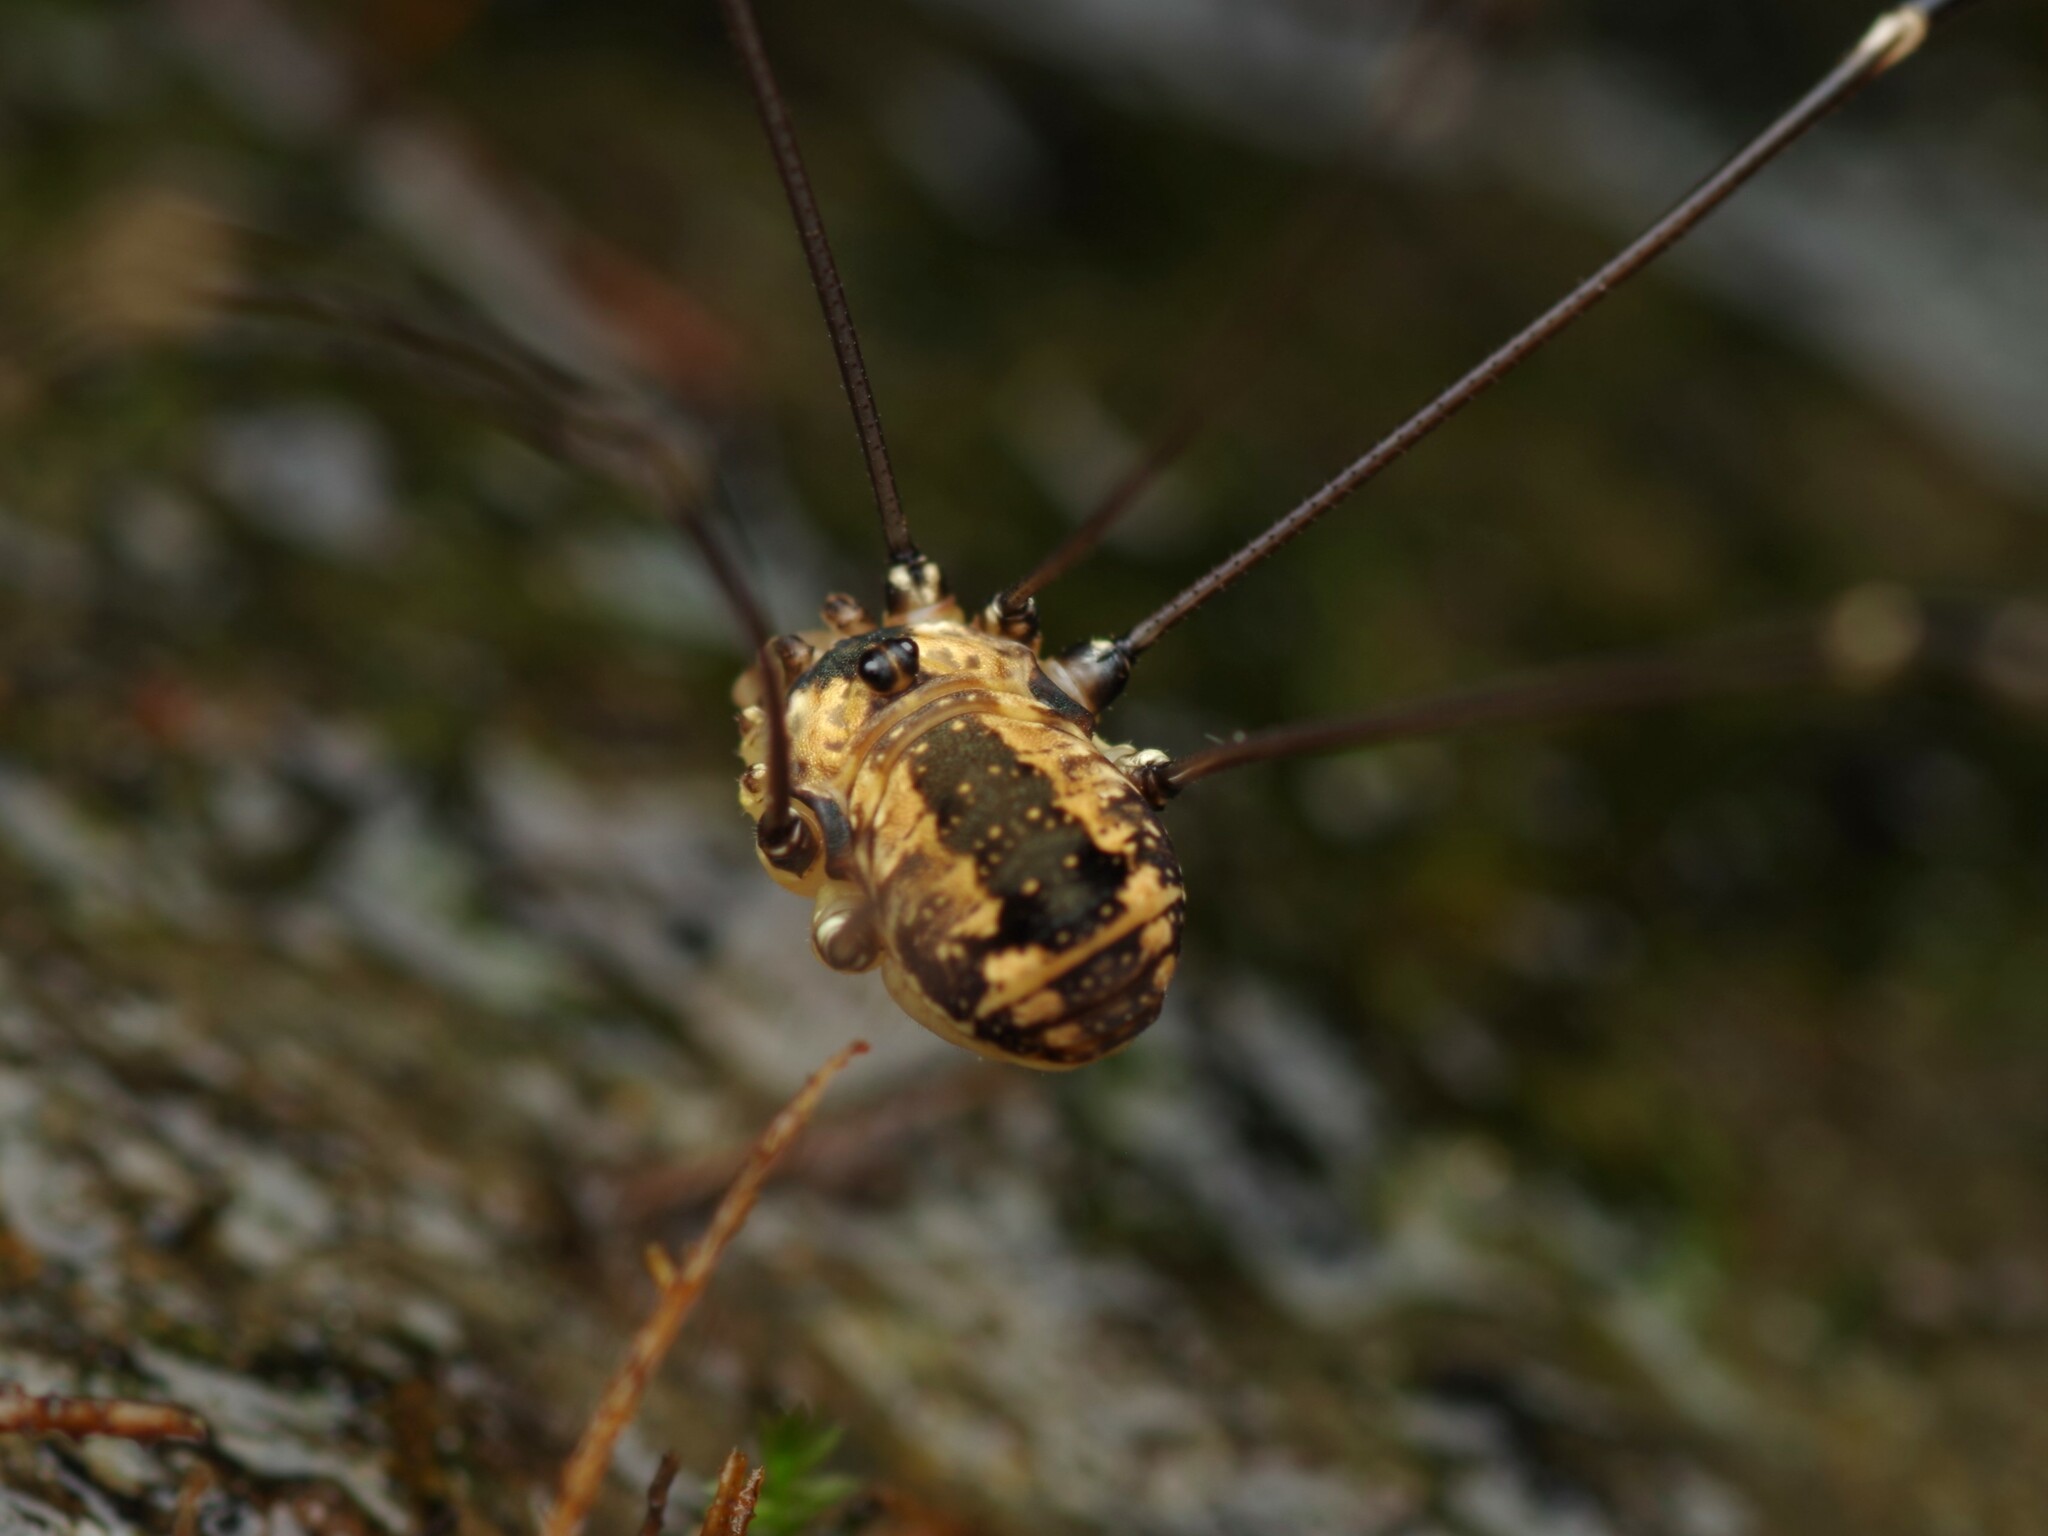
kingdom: Animalia
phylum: Arthropoda
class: Arachnida
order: Opiliones
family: Sclerosomatidae
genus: Leiobunum
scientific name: Leiobunum rotundum
